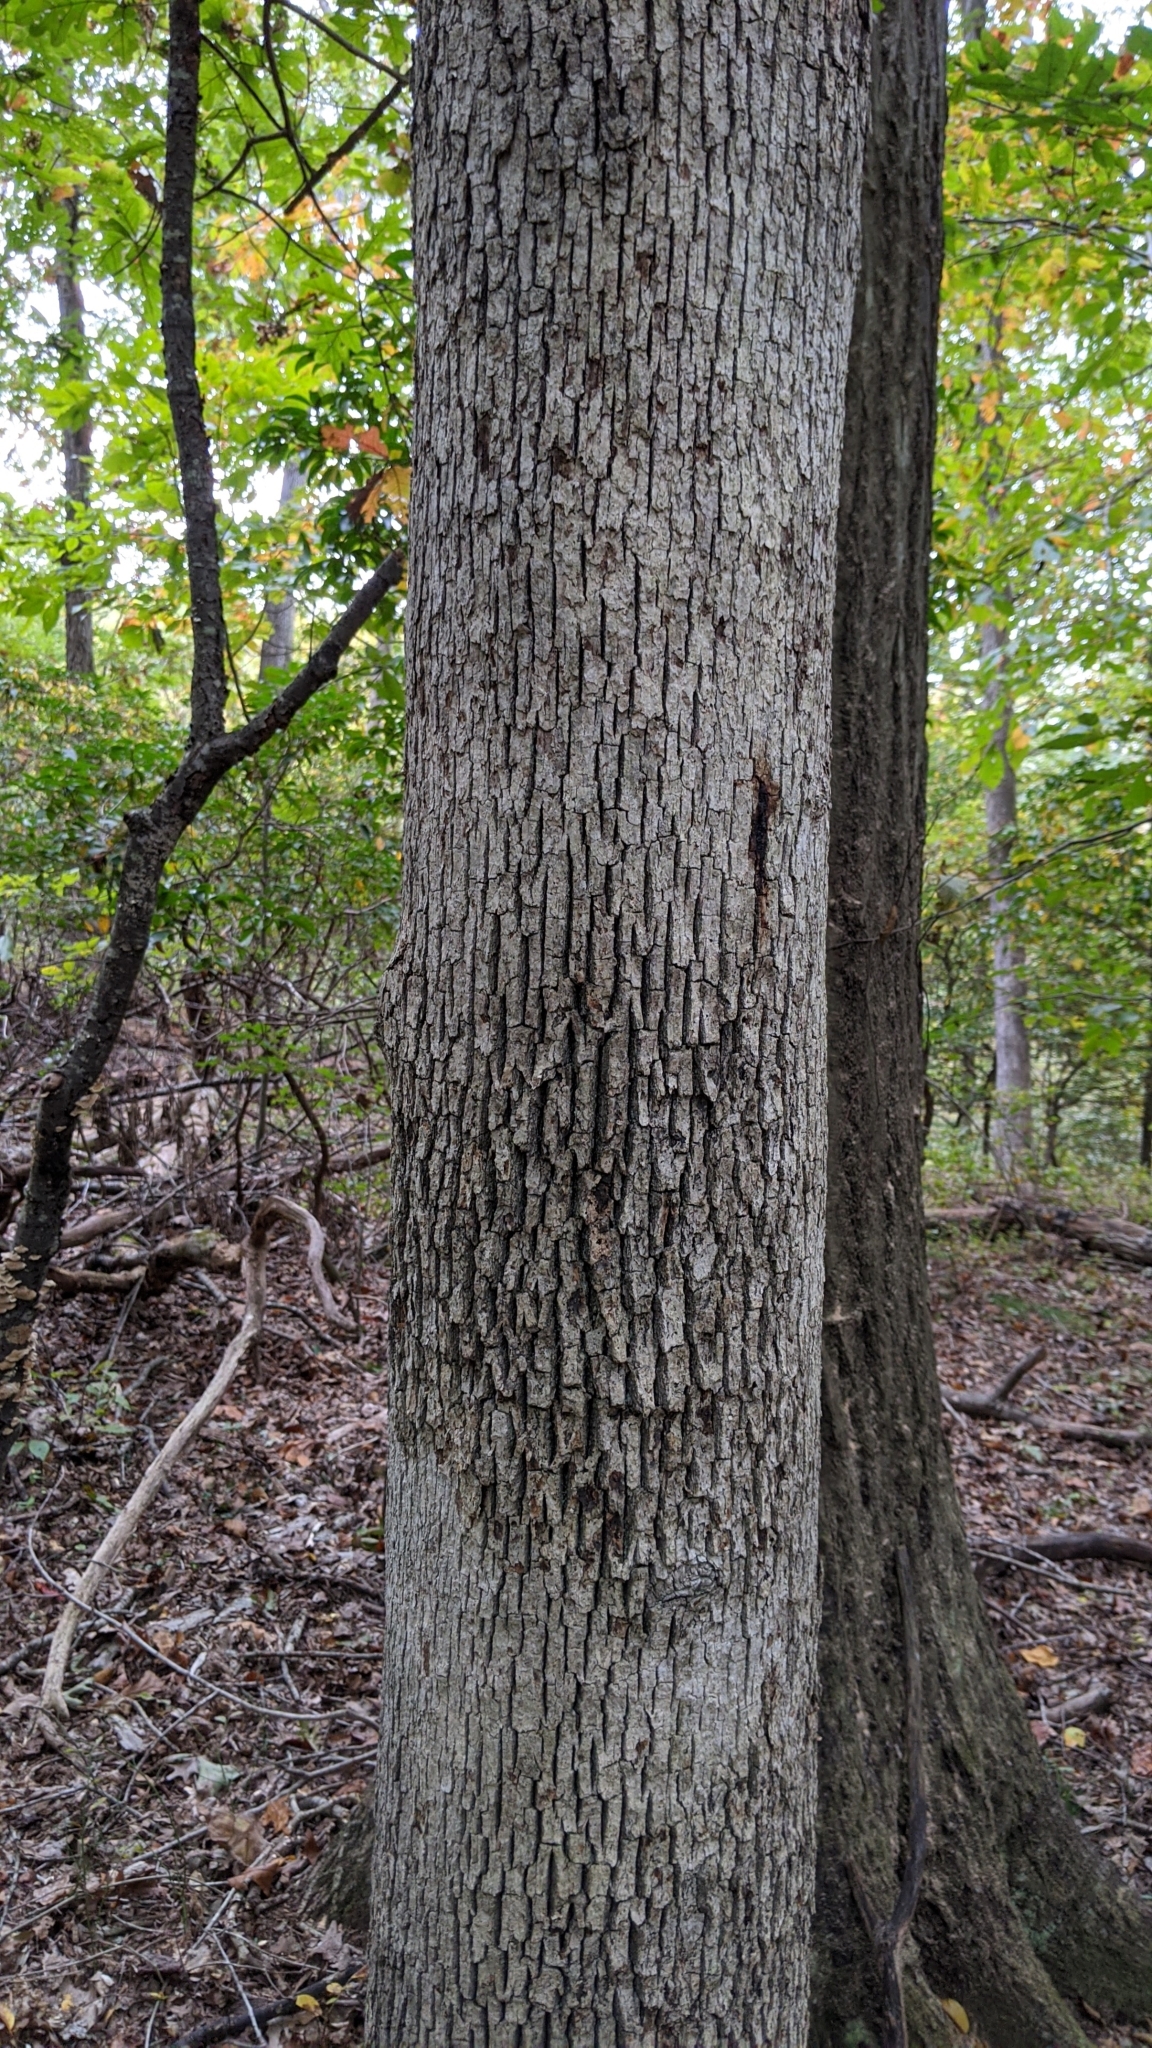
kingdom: Plantae
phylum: Tracheophyta
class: Magnoliopsida
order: Fagales
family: Fagaceae
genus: Quercus
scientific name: Quercus alba
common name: White oak
